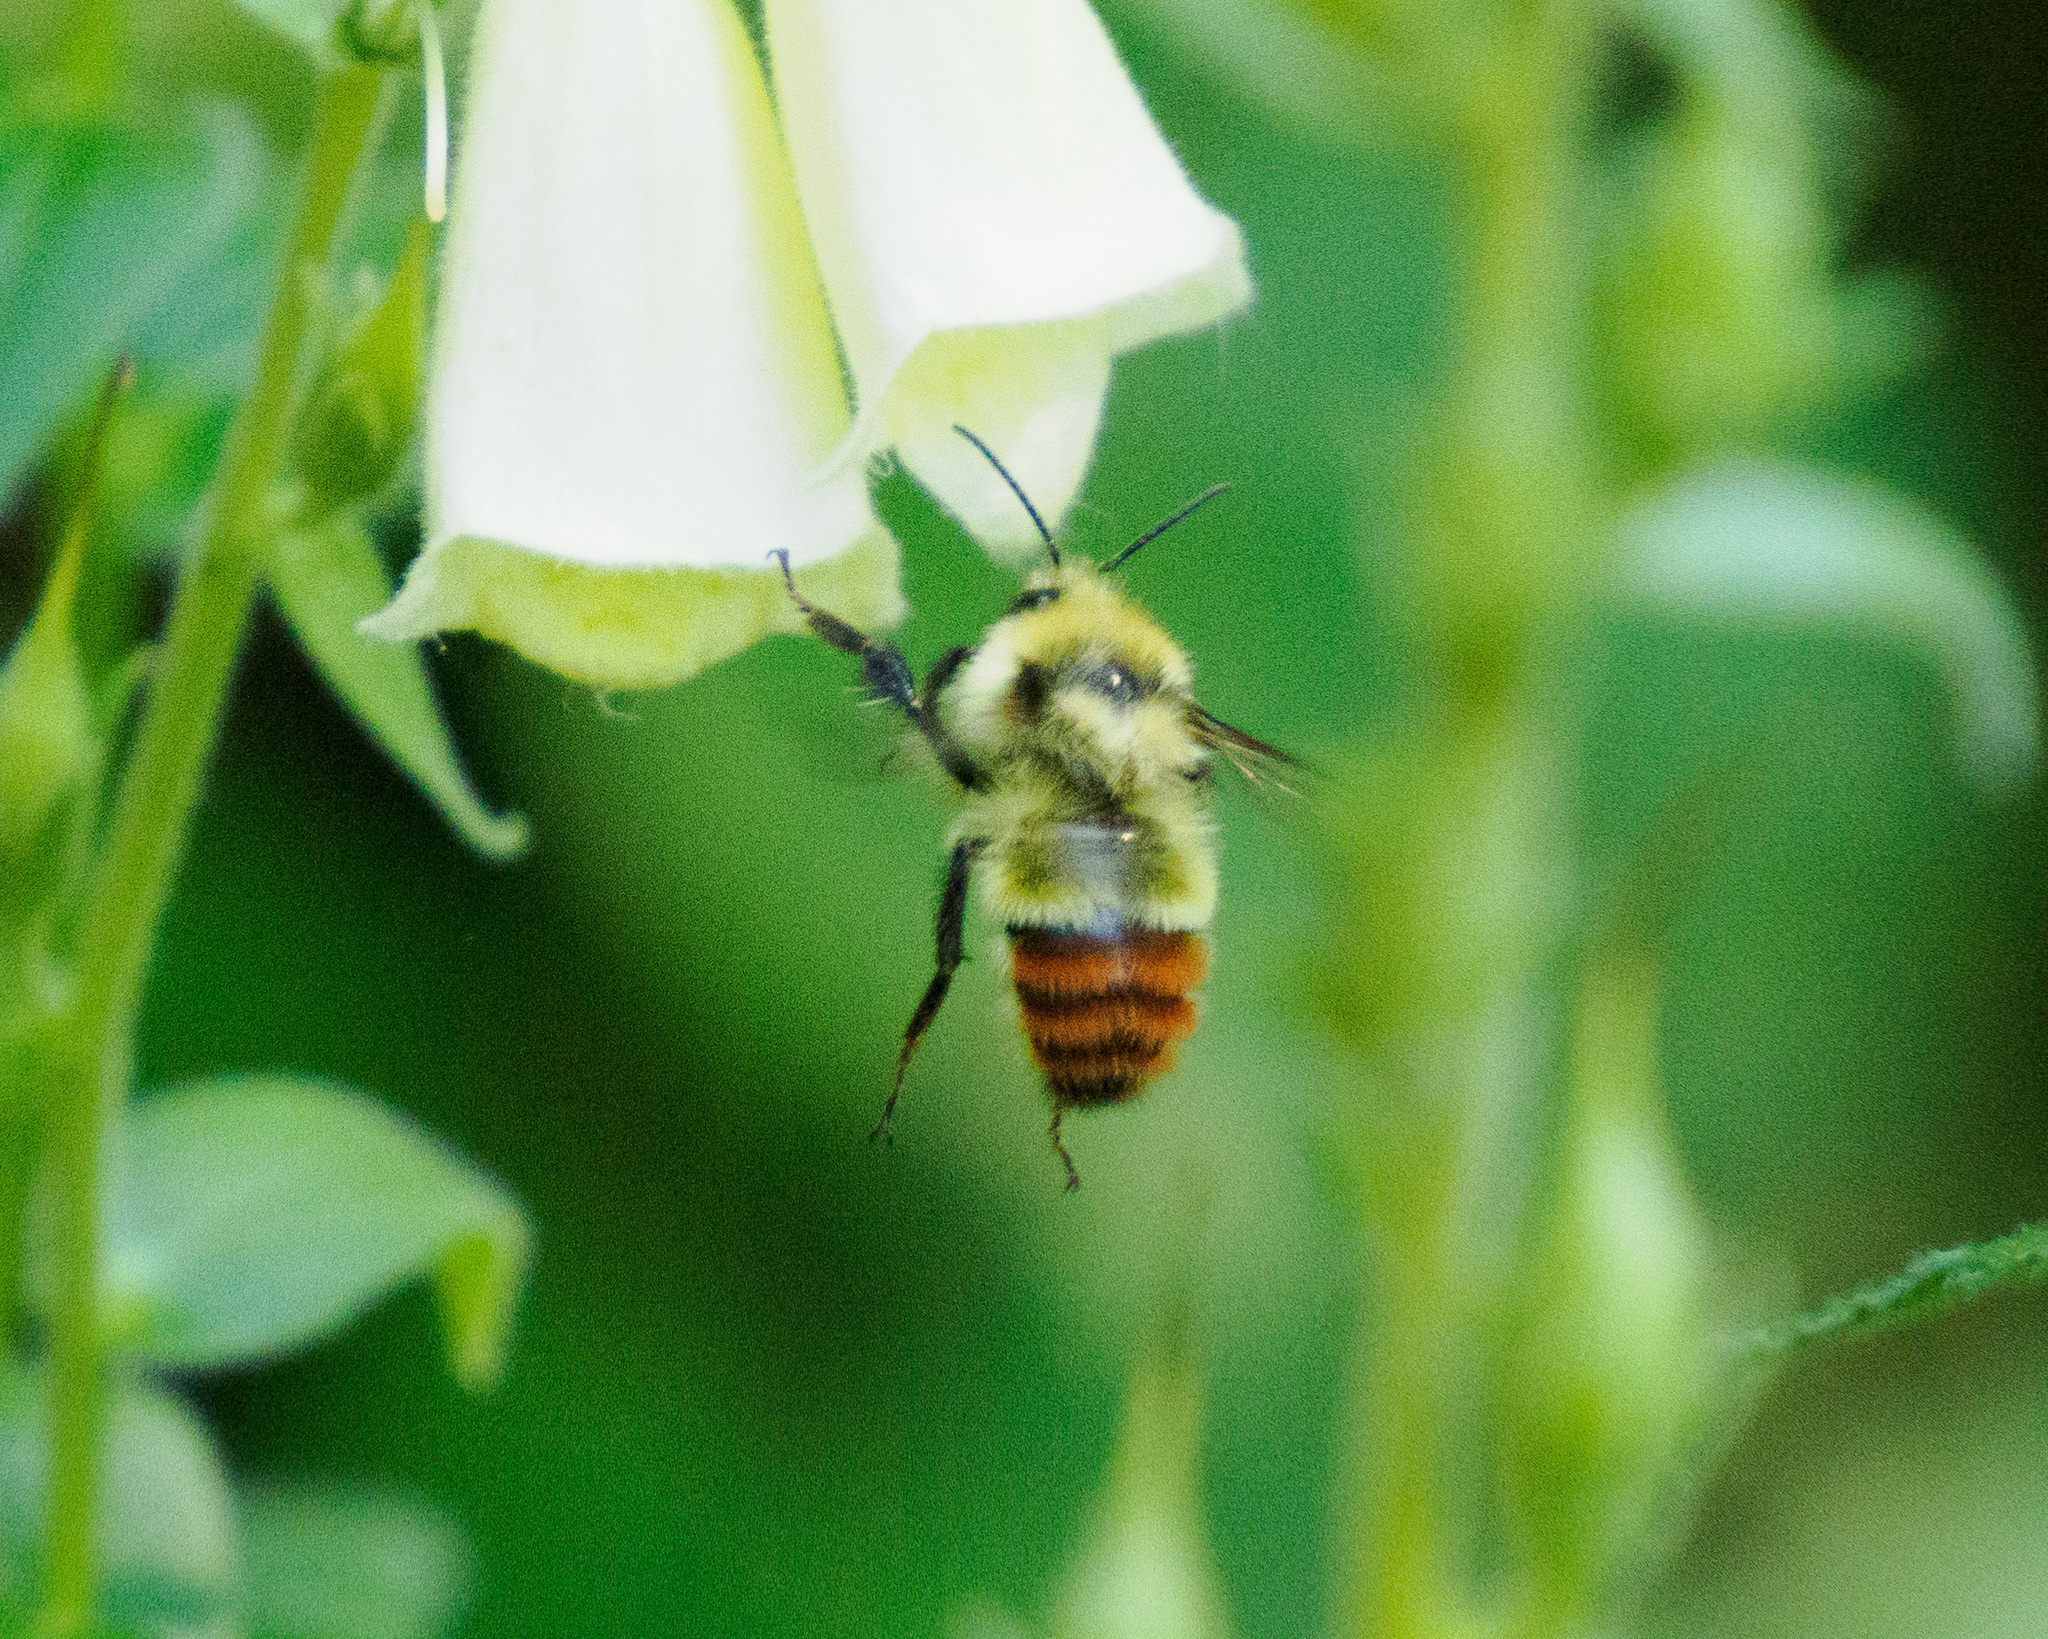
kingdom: Animalia
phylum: Arthropoda
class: Insecta
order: Hymenoptera
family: Apidae
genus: Bombus
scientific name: Bombus centralis
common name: Central bumble bee
